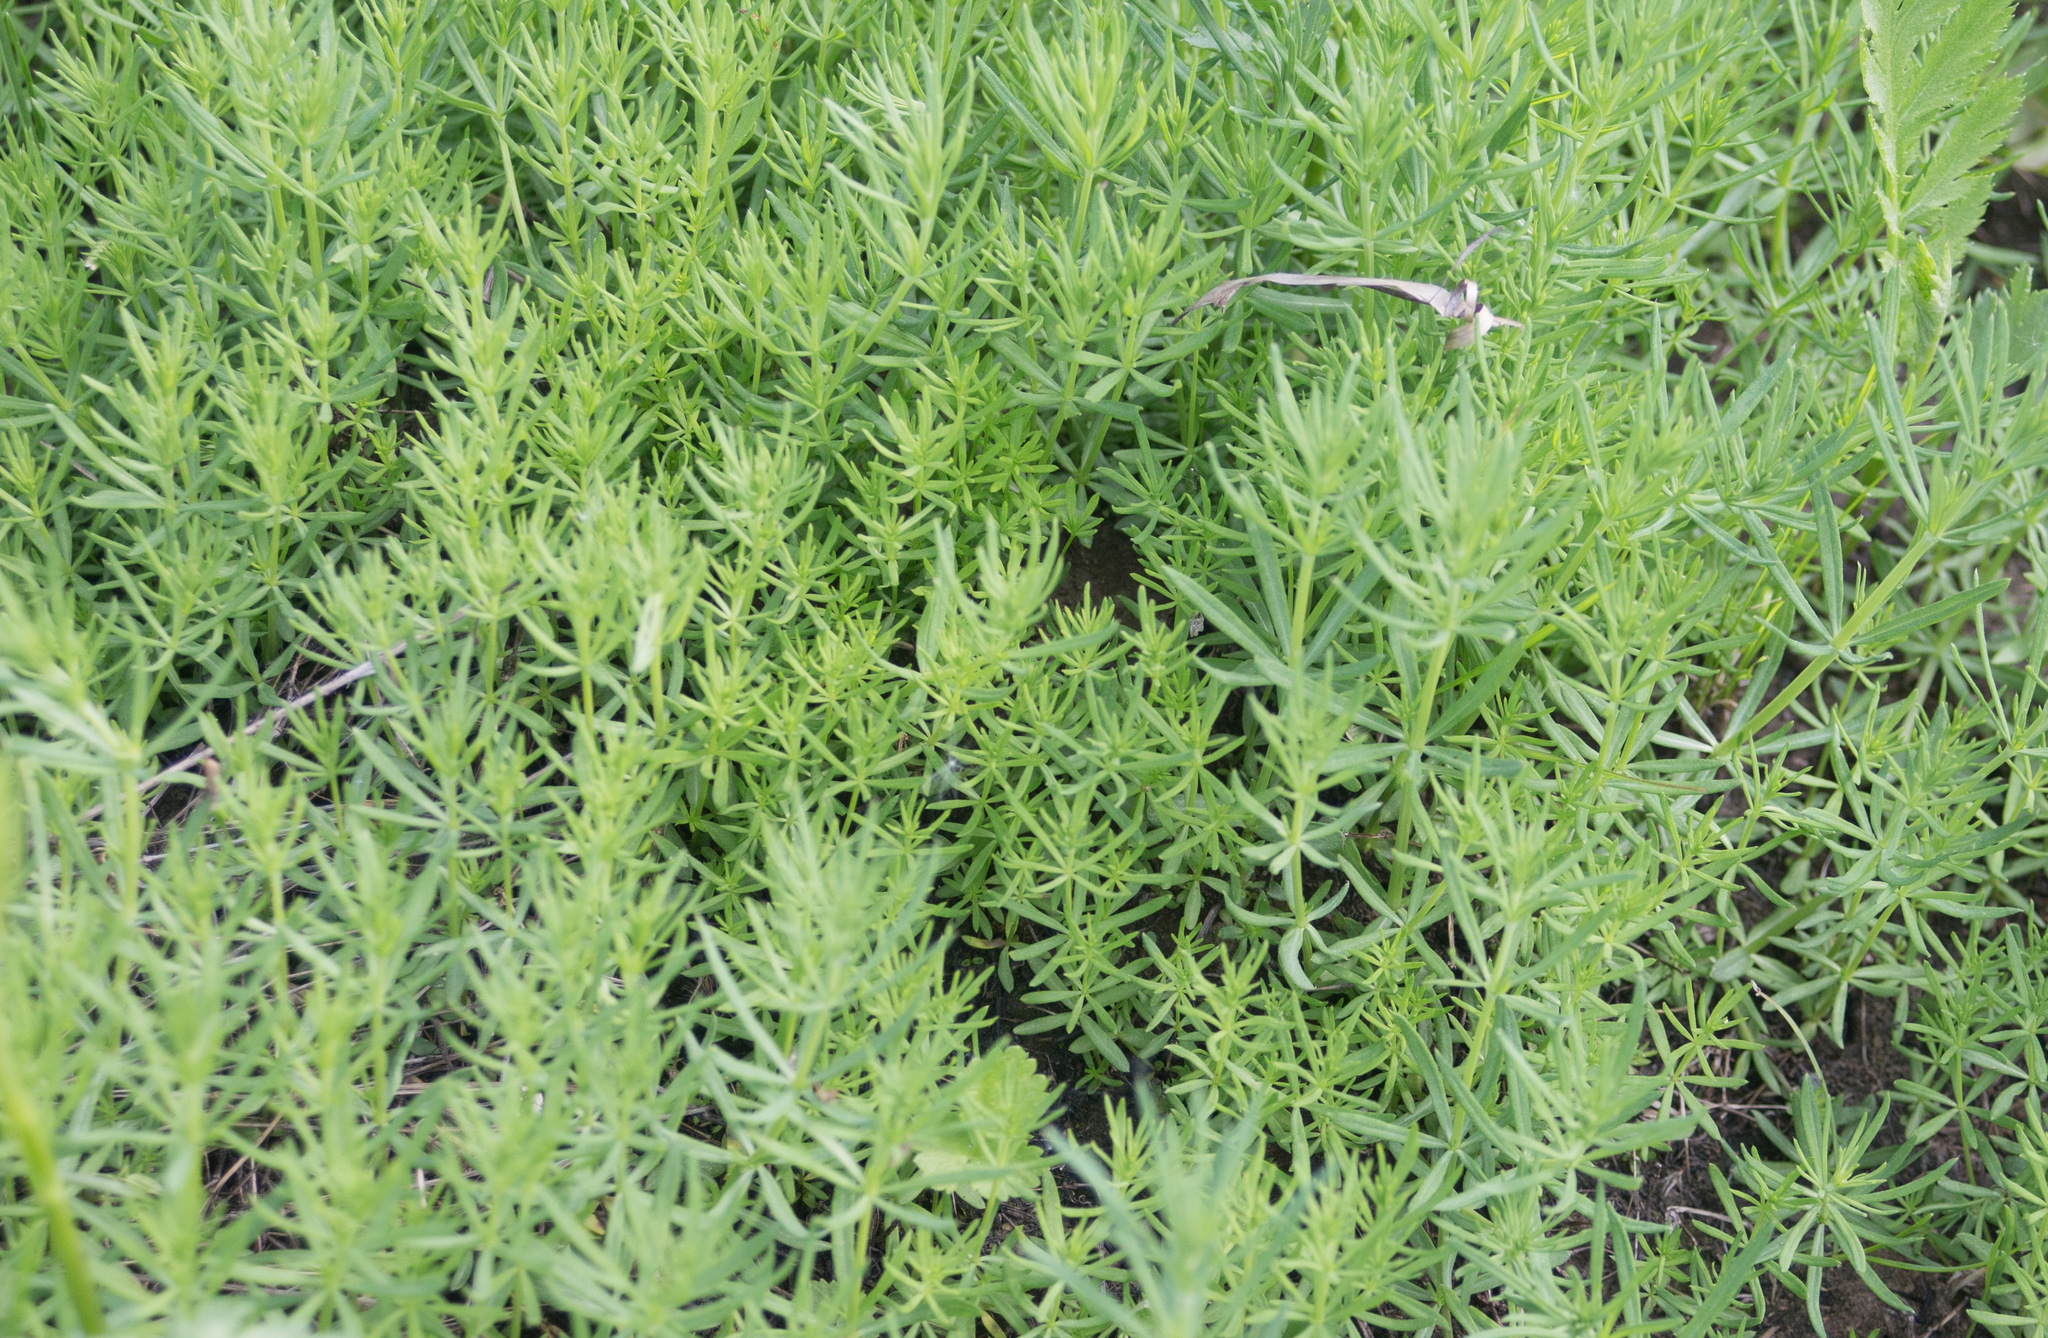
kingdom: Plantae
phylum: Tracheophyta
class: Magnoliopsida
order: Gentianales
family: Rubiaceae
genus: Galium
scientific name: Galium verum
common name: Lady's bedstraw
